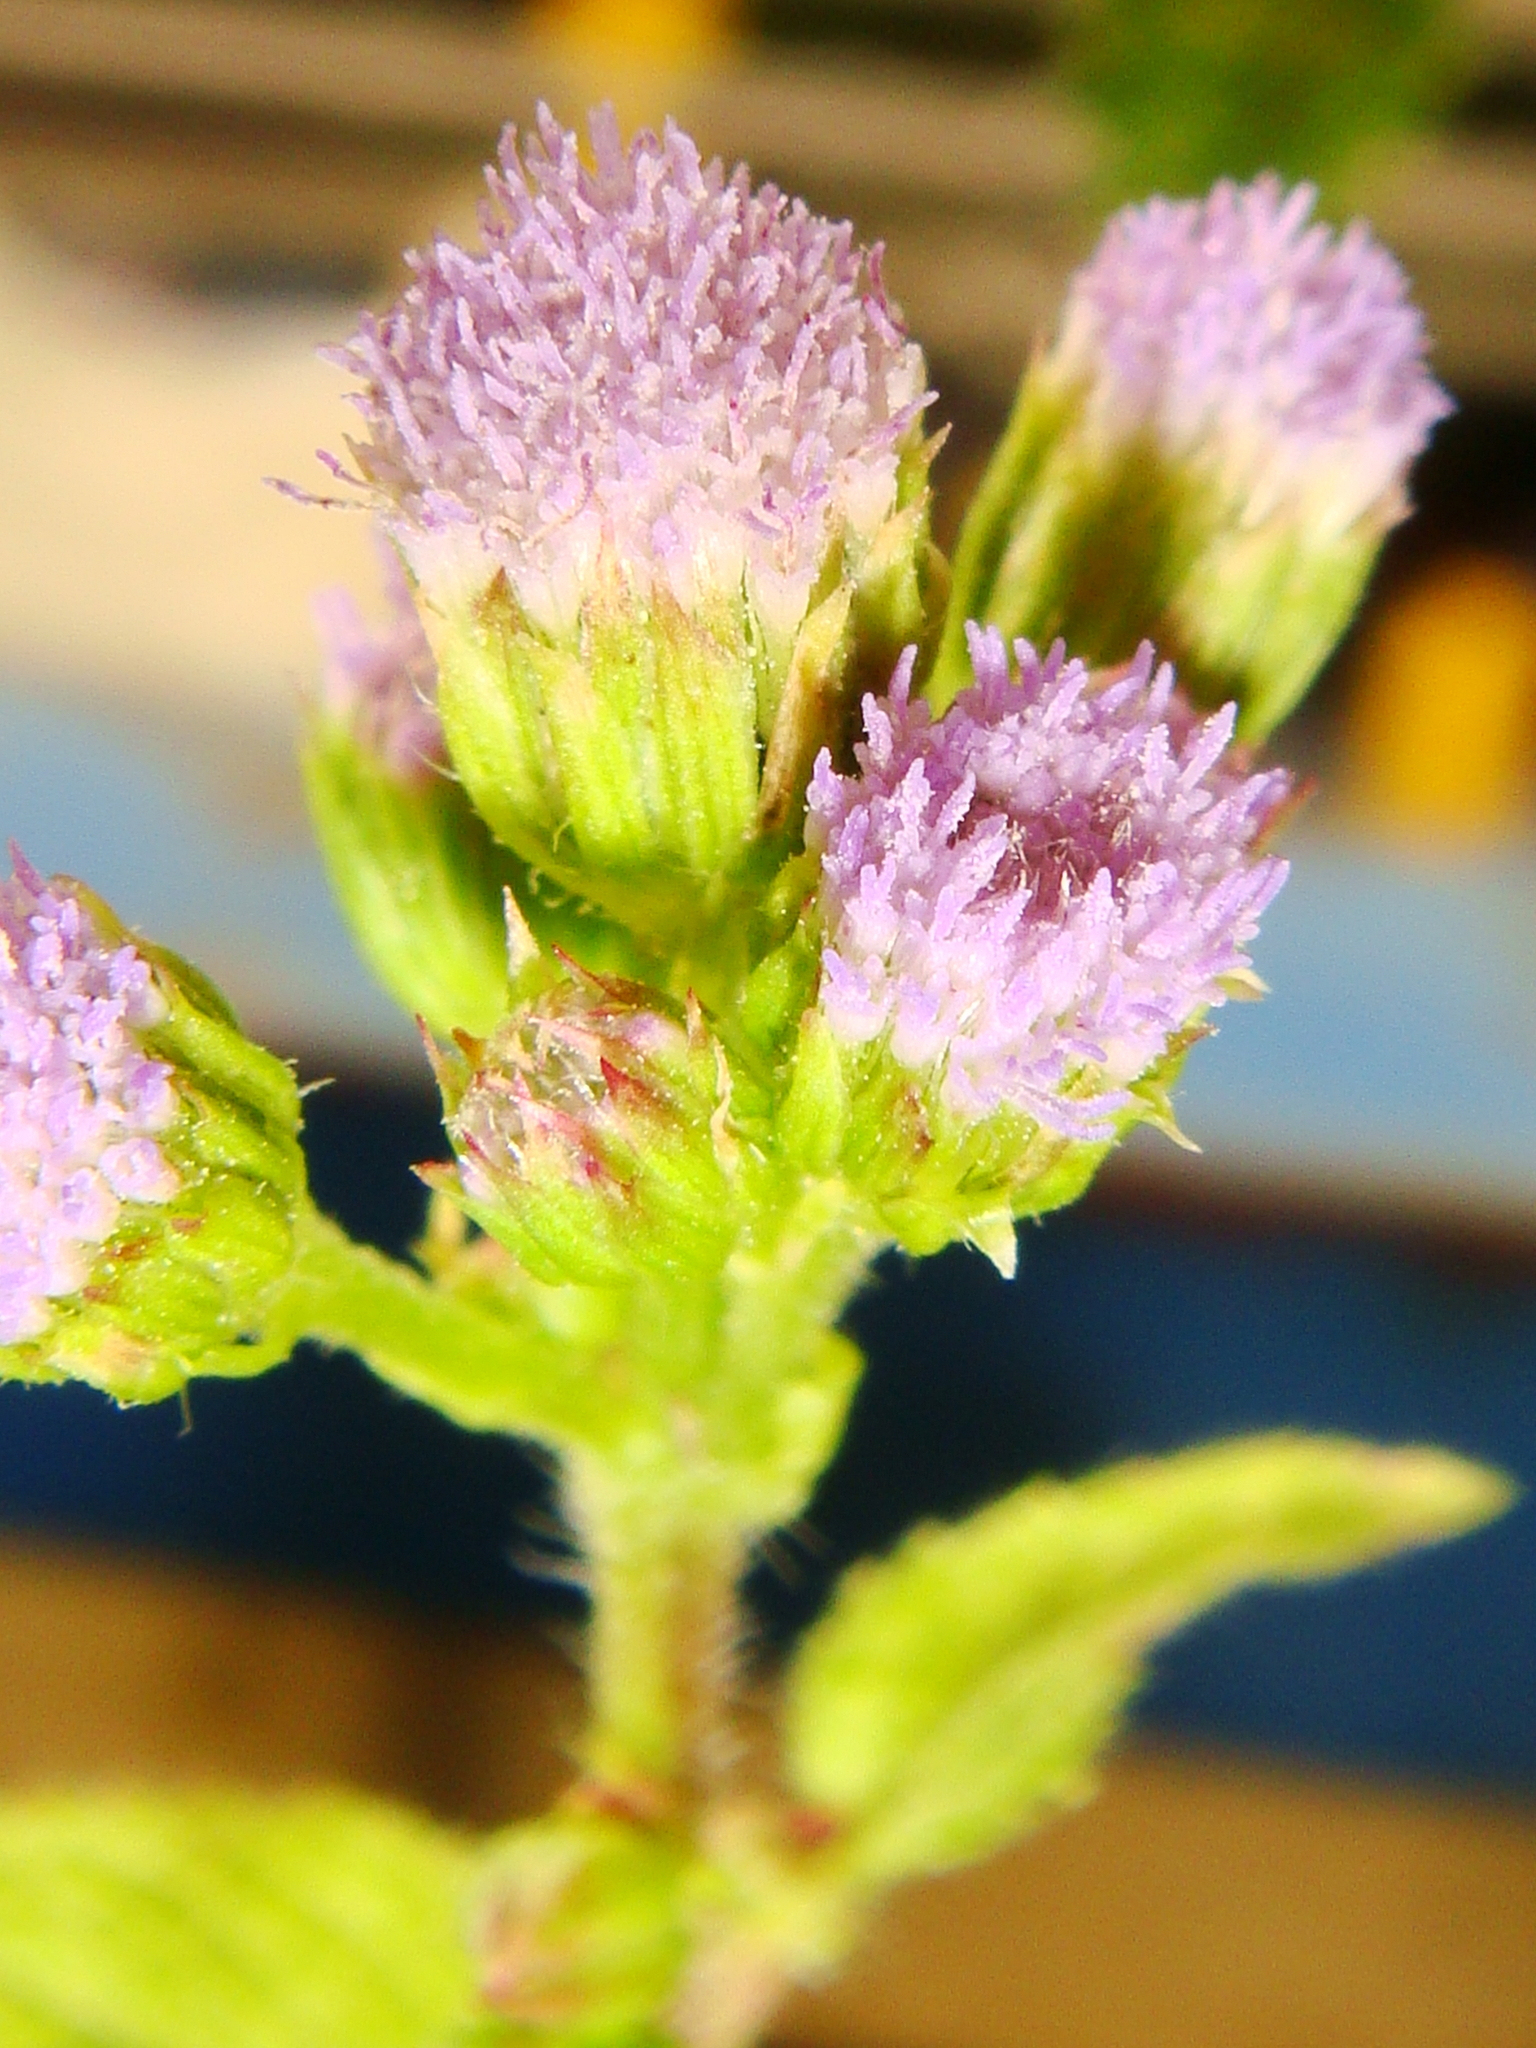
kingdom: Plantae
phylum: Tracheophyta
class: Magnoliopsida
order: Asterales
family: Asteraceae
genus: Ageratum
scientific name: Ageratum conyzoides
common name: Tropical whiteweed
